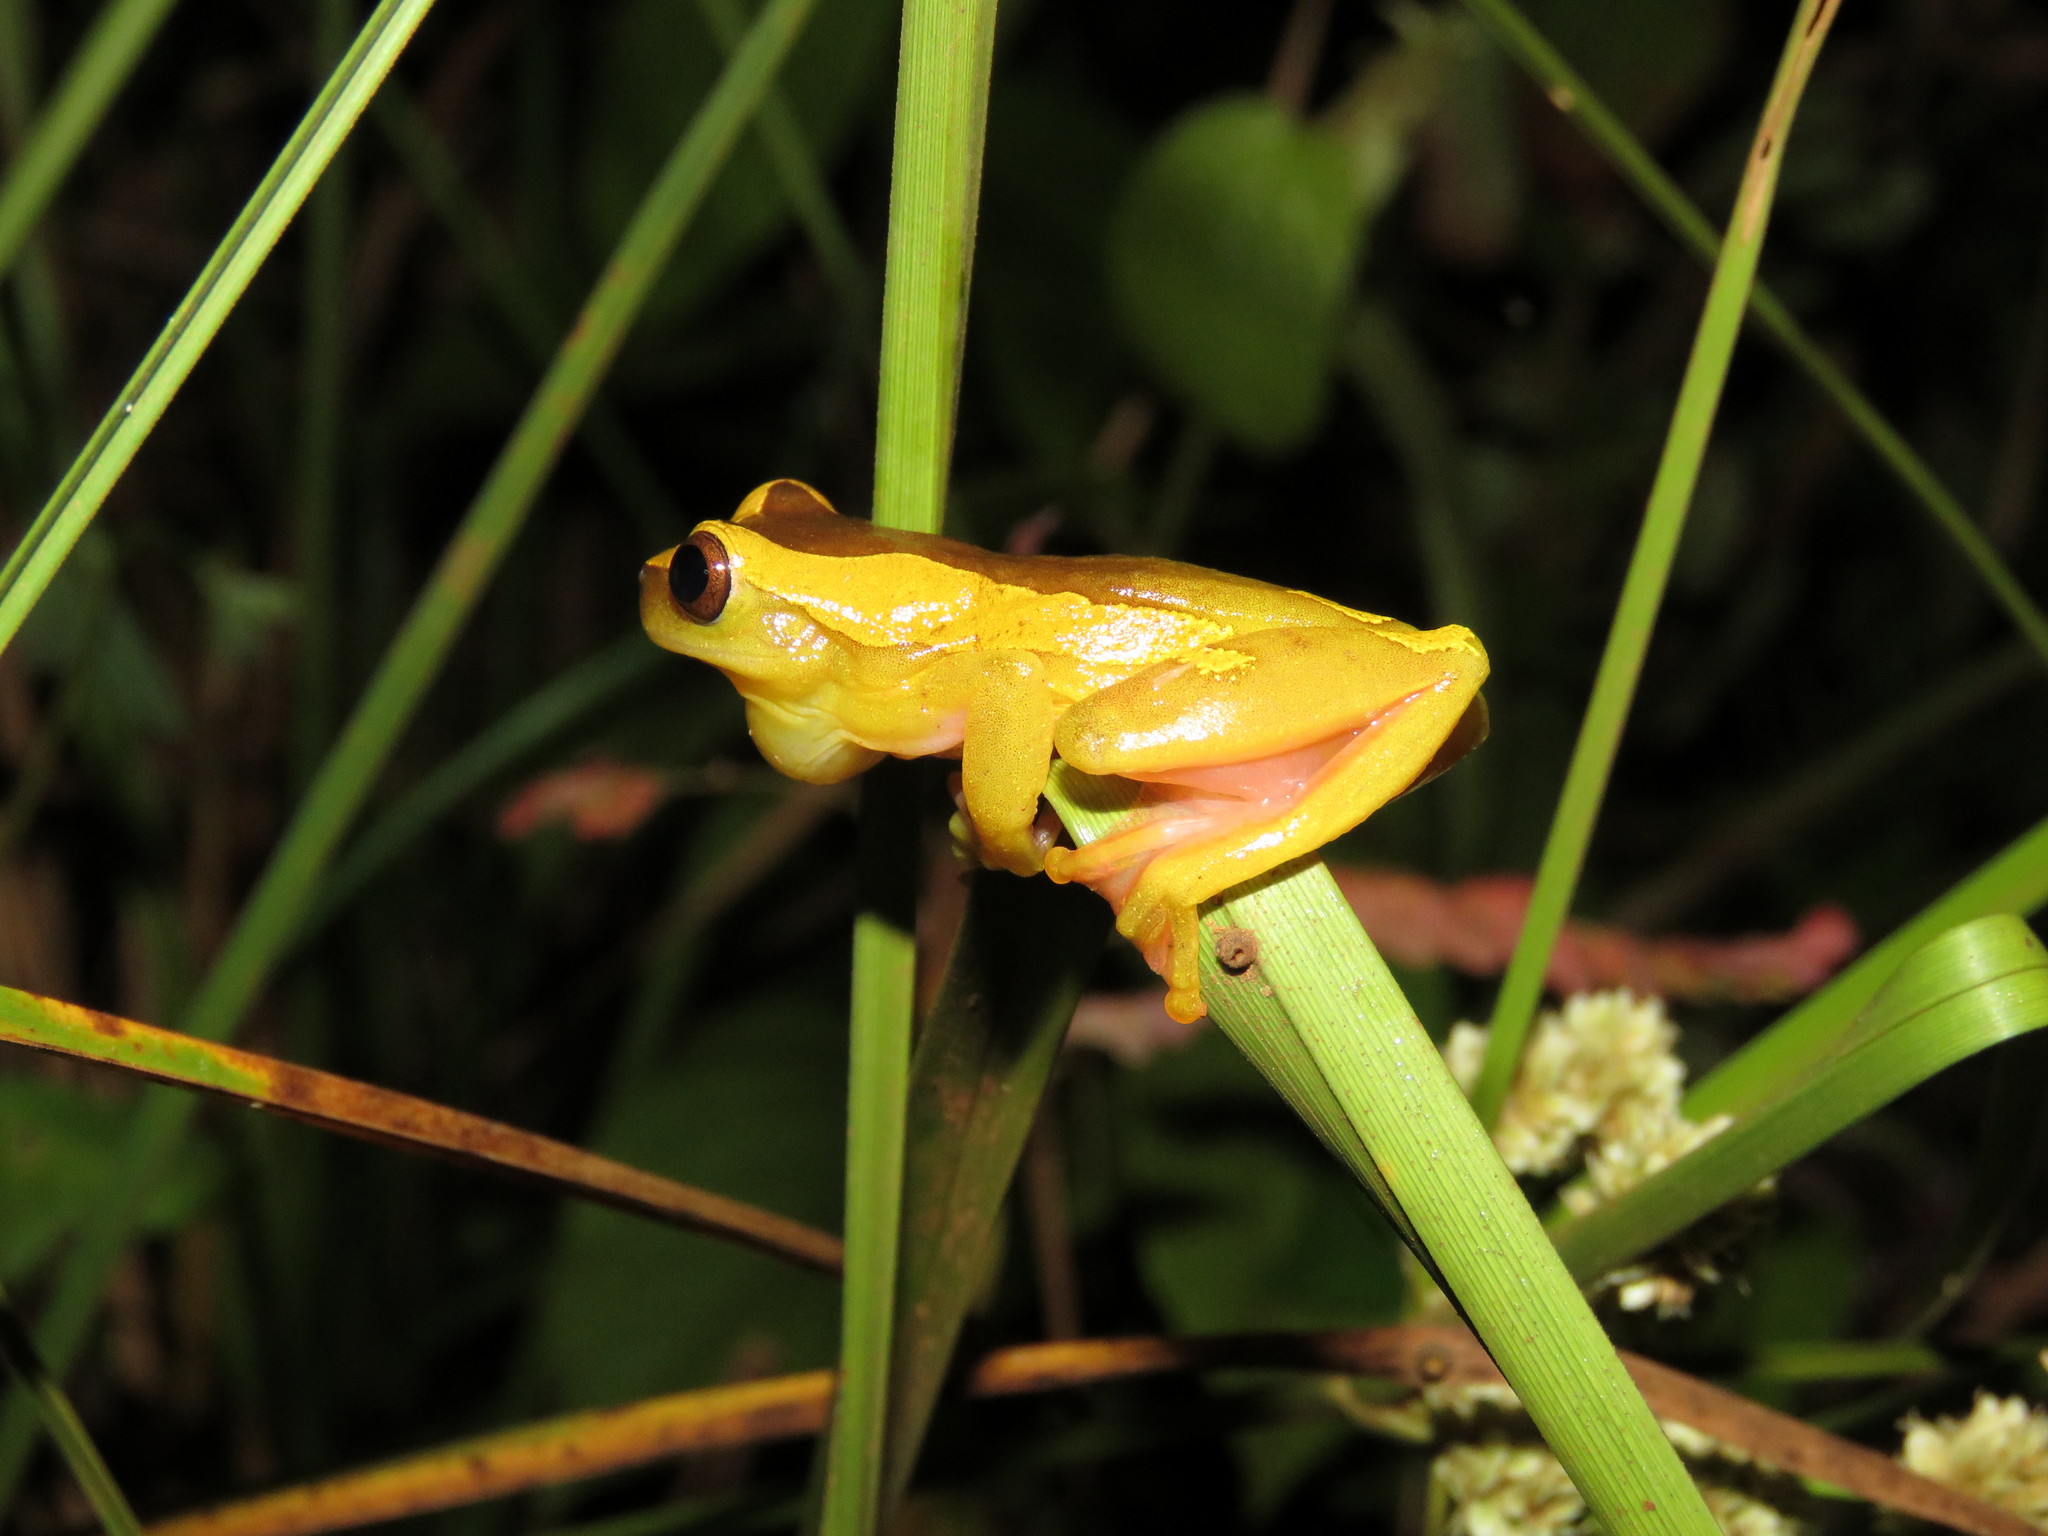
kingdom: Animalia
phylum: Chordata
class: Amphibia
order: Anura
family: Hylidae
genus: Dendropsophus
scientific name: Dendropsophus arndti
